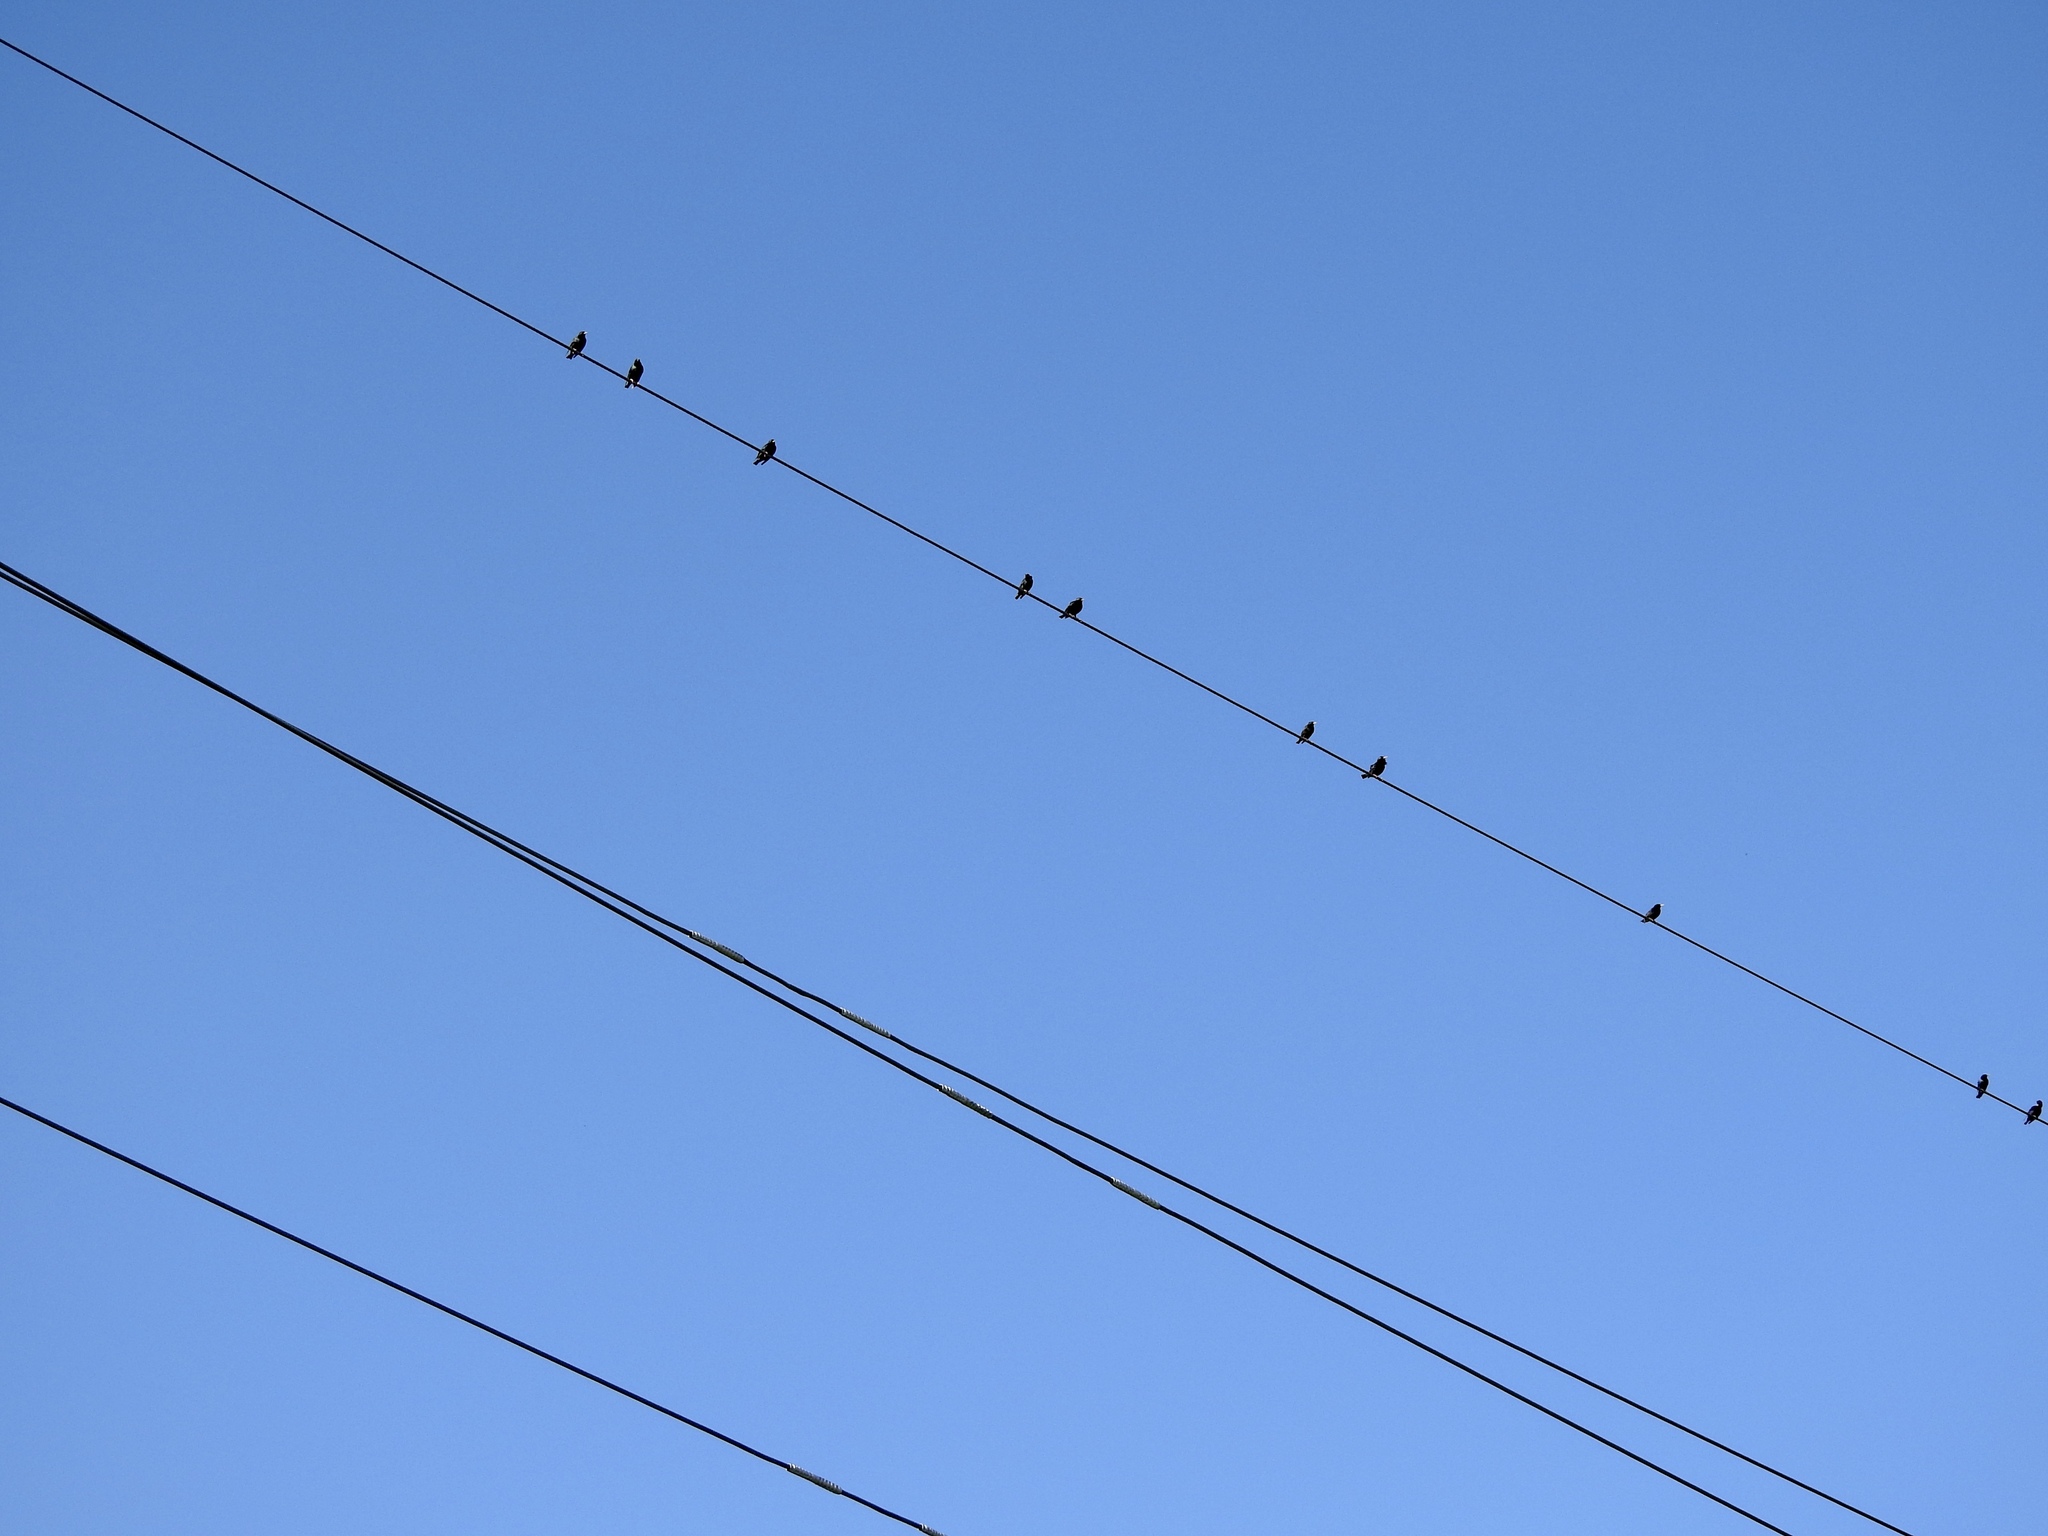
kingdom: Animalia
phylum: Chordata
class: Aves
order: Passeriformes
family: Sturnidae
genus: Sturnus
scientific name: Sturnus vulgaris
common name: Common starling
